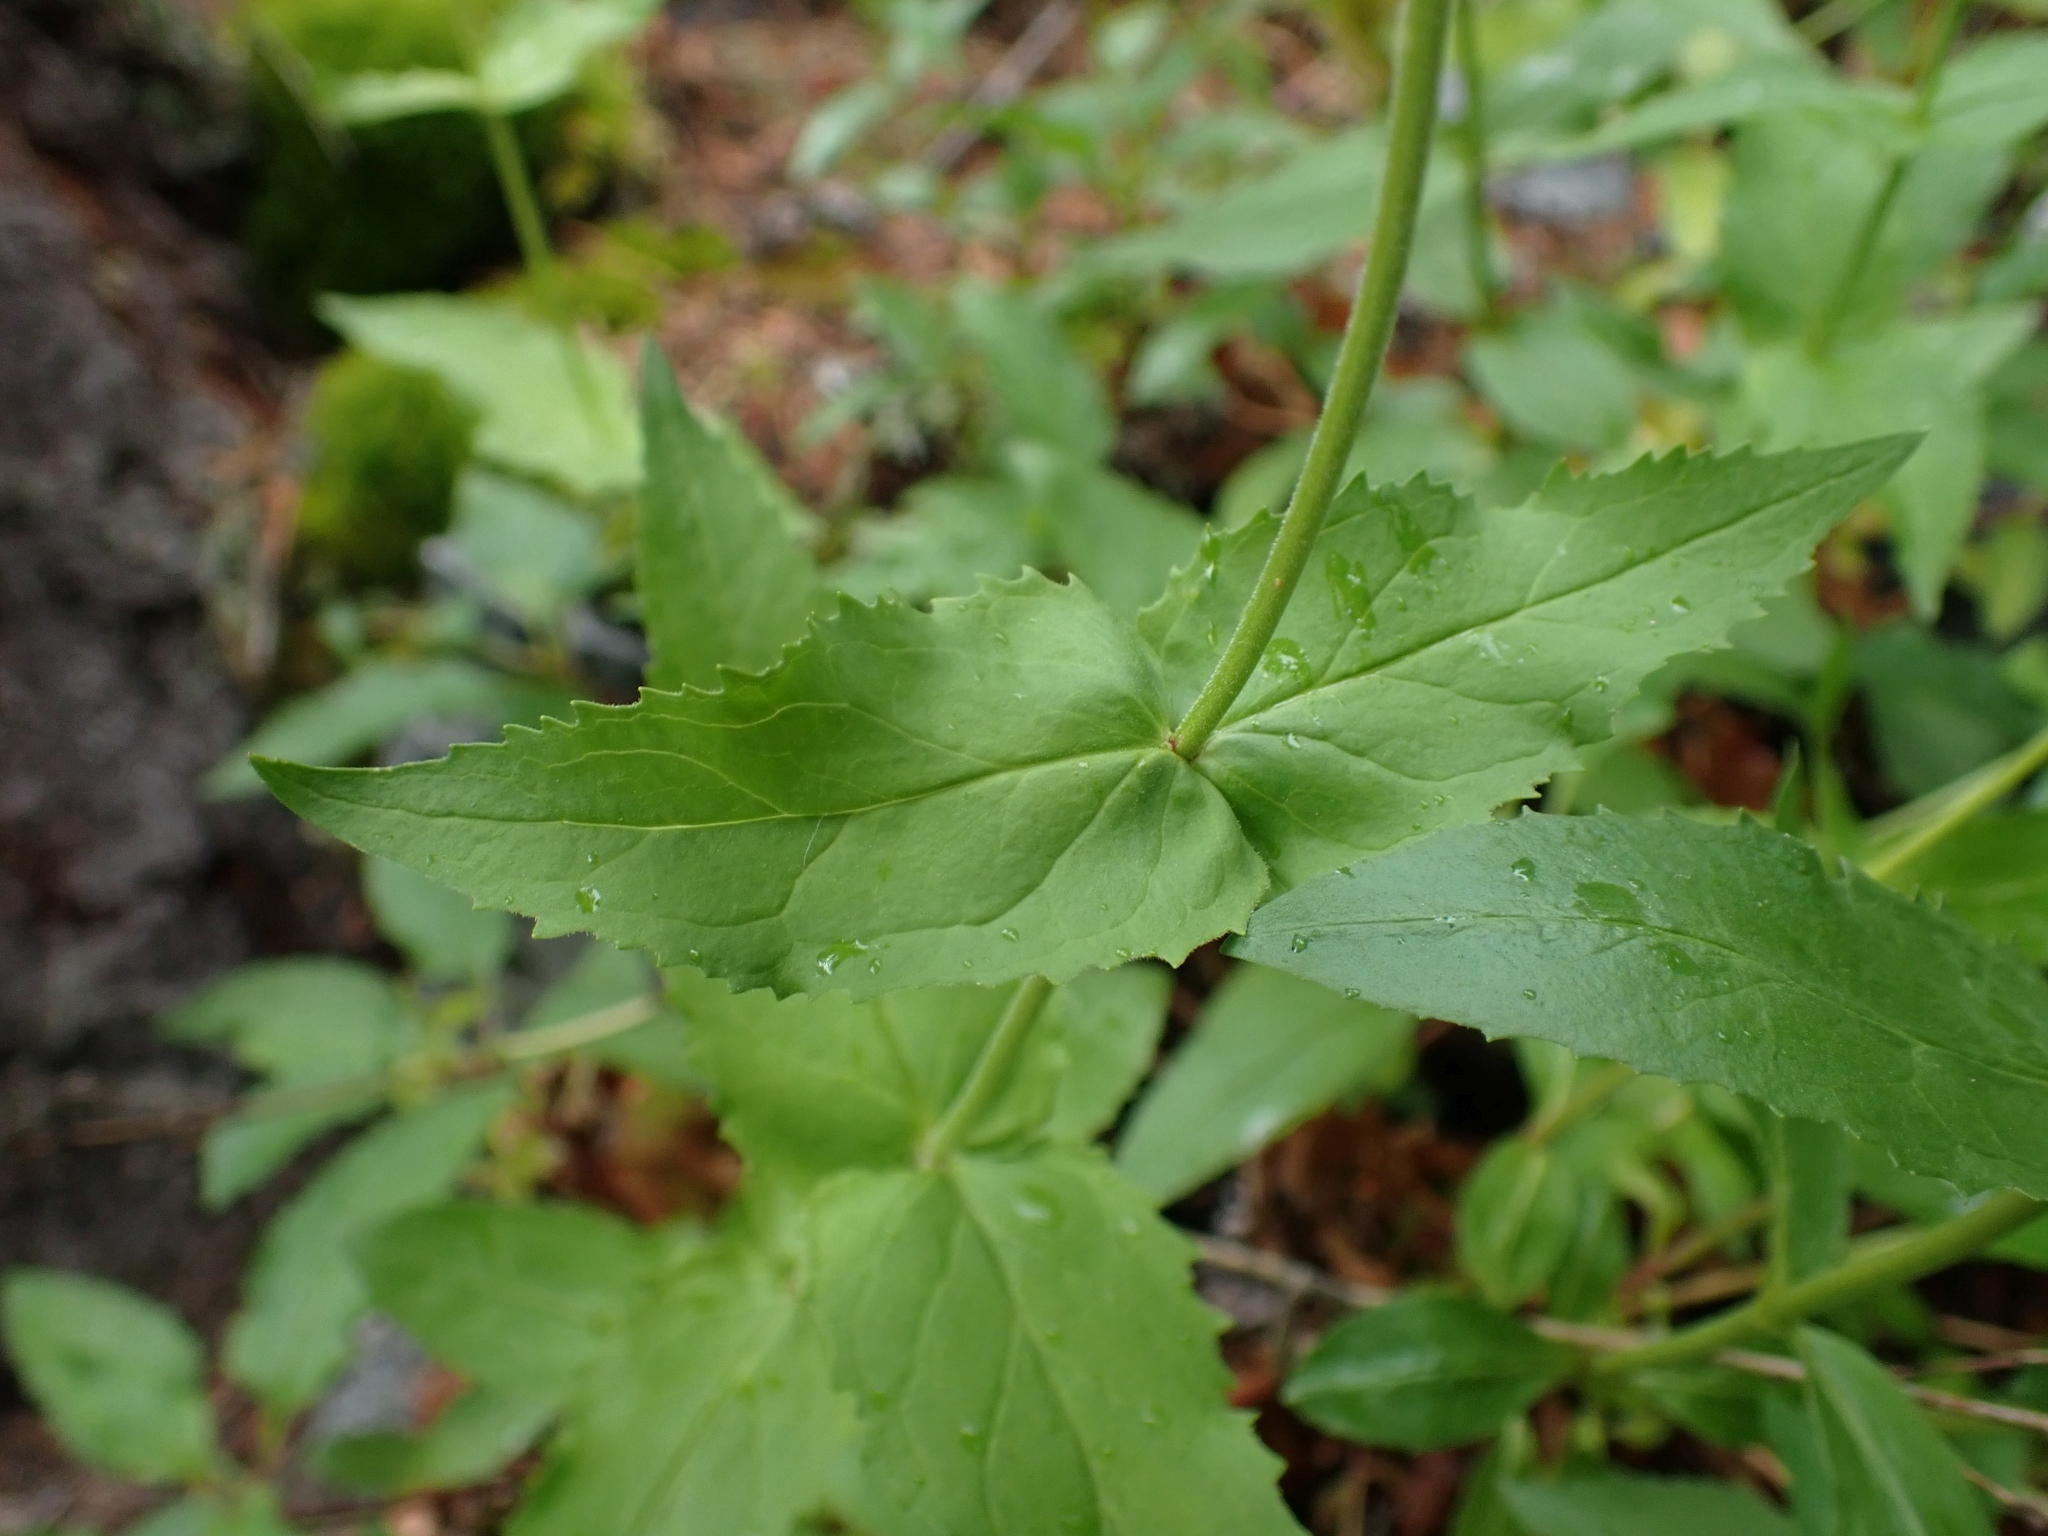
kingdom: Plantae
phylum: Tracheophyta
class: Magnoliopsida
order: Lamiales
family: Plantaginaceae
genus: Penstemon
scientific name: Penstemon serrulatus
